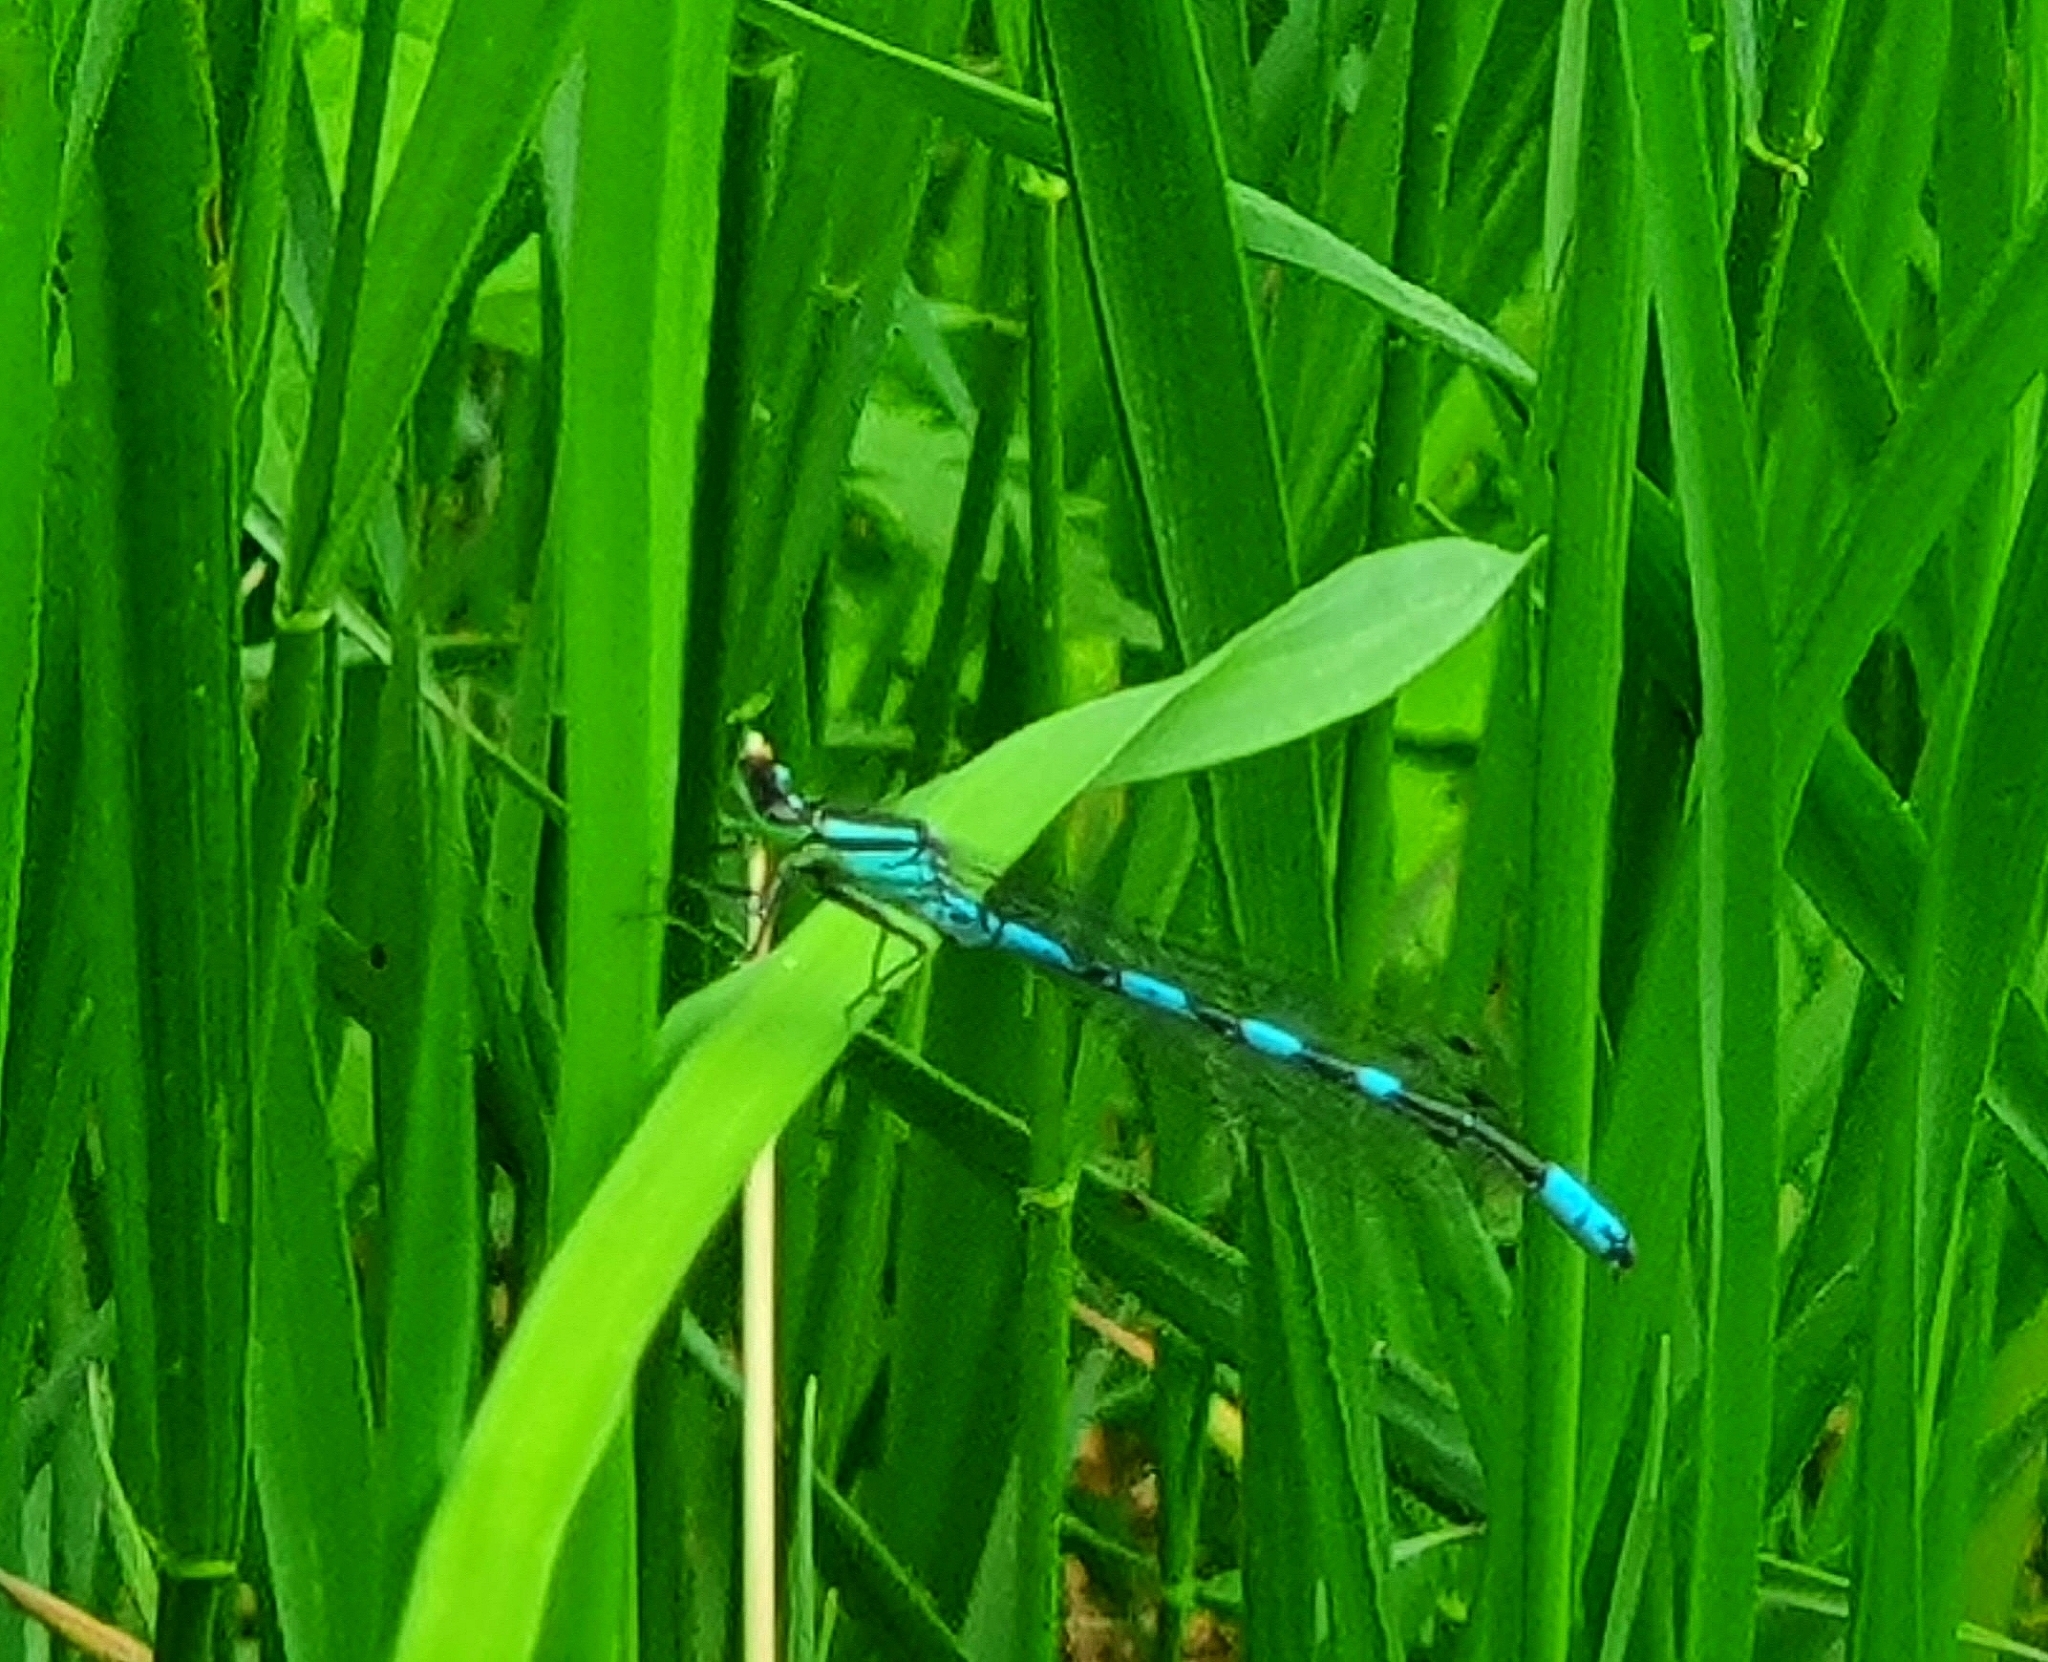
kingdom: Animalia
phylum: Arthropoda
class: Insecta
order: Odonata
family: Coenagrionidae
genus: Coenagrion
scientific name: Coenagrion hastulatum
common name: Spearhead bluet
